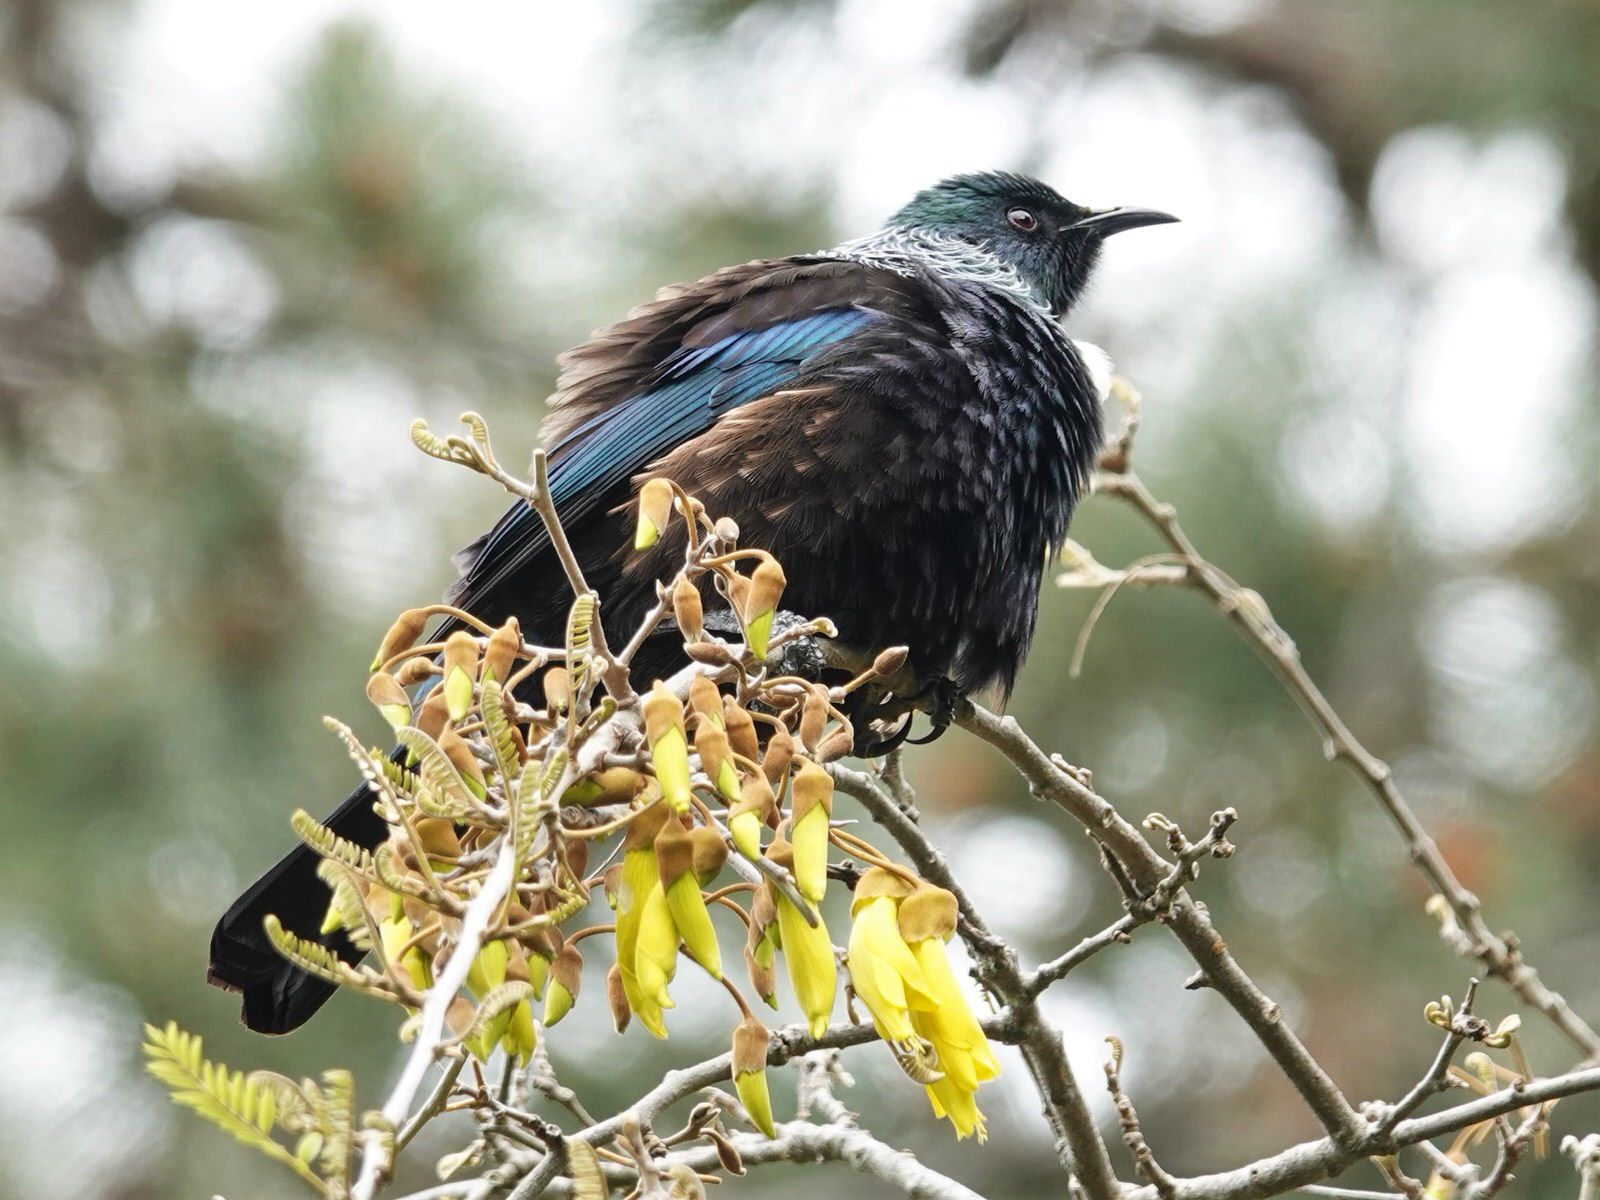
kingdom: Animalia
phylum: Chordata
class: Aves
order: Passeriformes
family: Meliphagidae
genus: Prosthemadera
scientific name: Prosthemadera novaeseelandiae
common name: Tui
